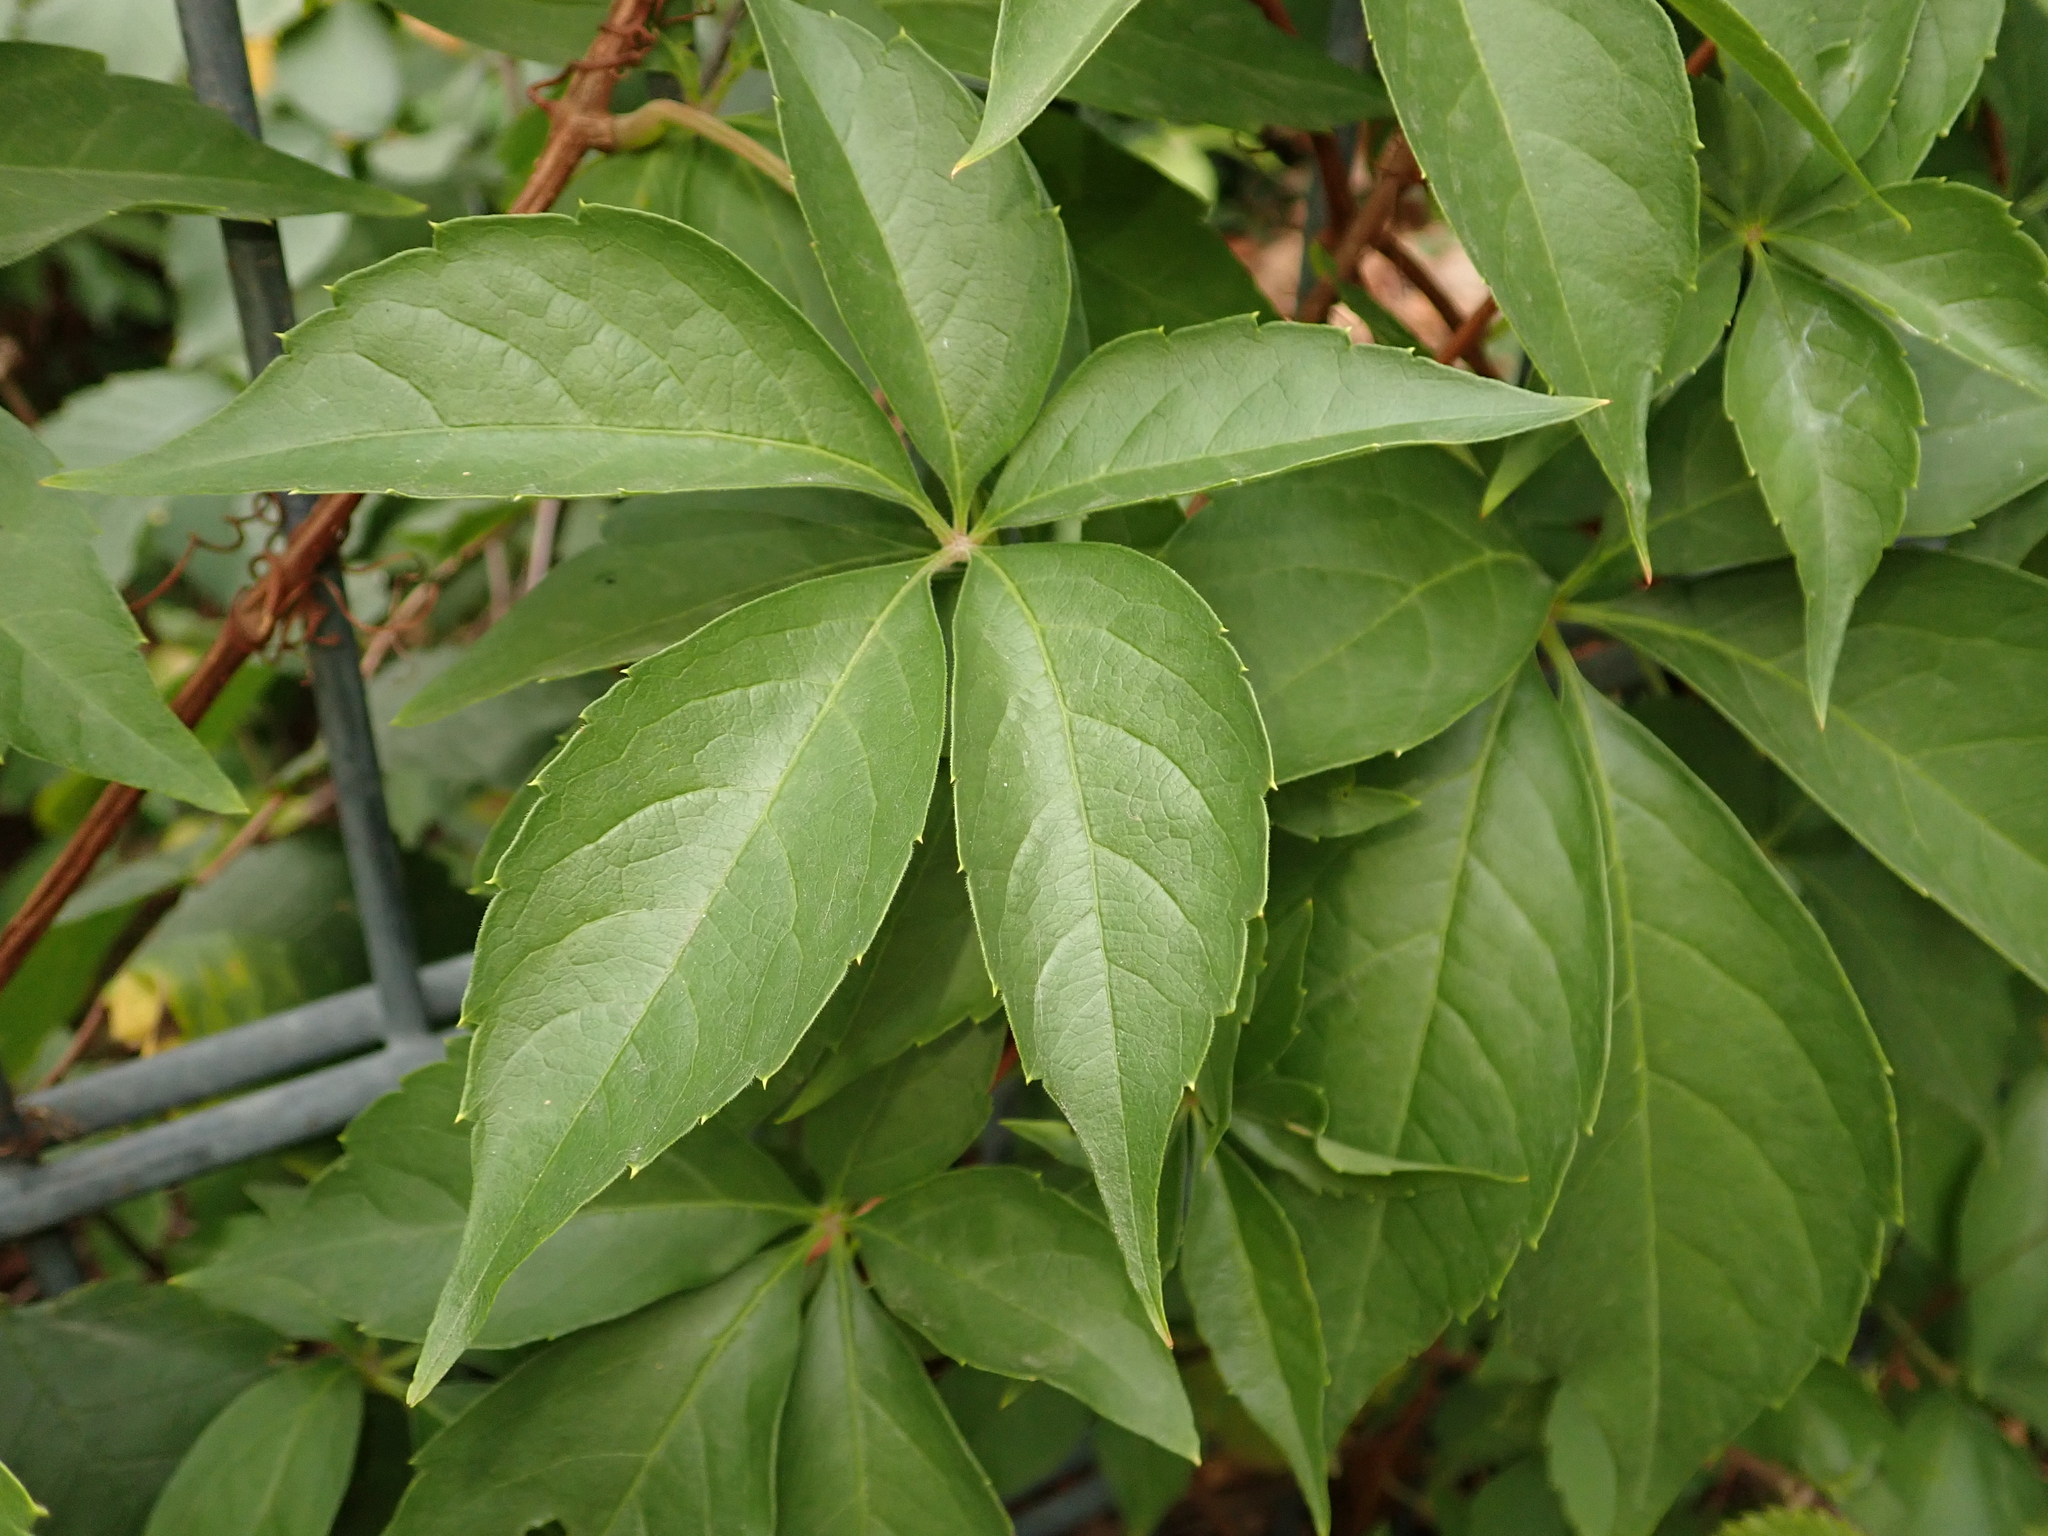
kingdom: Plantae
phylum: Tracheophyta
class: Magnoliopsida
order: Vitales
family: Vitaceae
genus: Parthenocissus
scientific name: Parthenocissus quinquefolia
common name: Virginia-creeper
